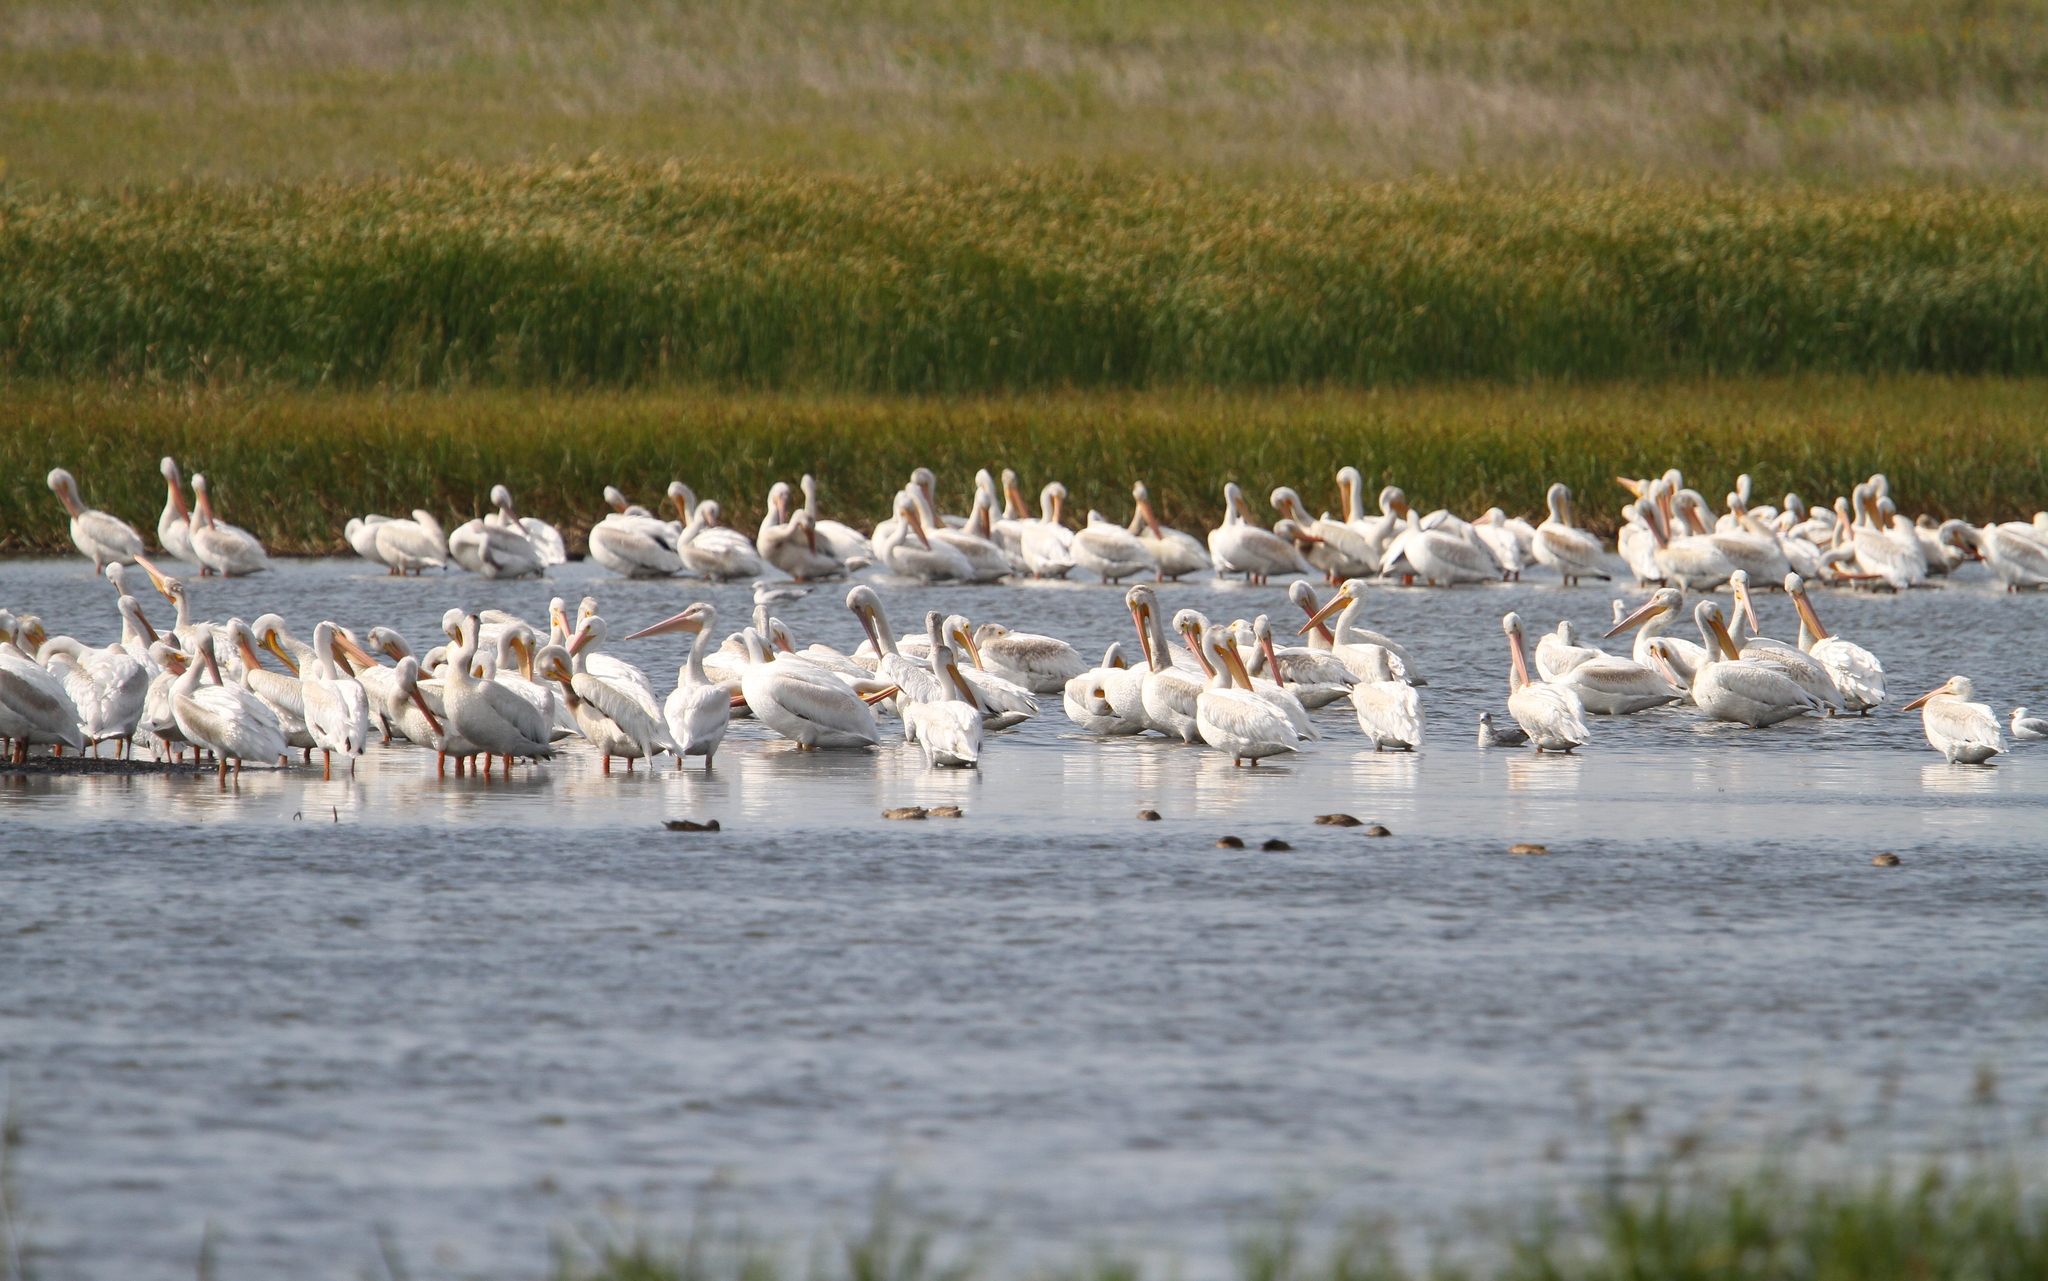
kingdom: Animalia
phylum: Chordata
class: Aves
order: Pelecaniformes
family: Pelecanidae
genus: Pelecanus
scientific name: Pelecanus erythrorhynchos
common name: American white pelican
